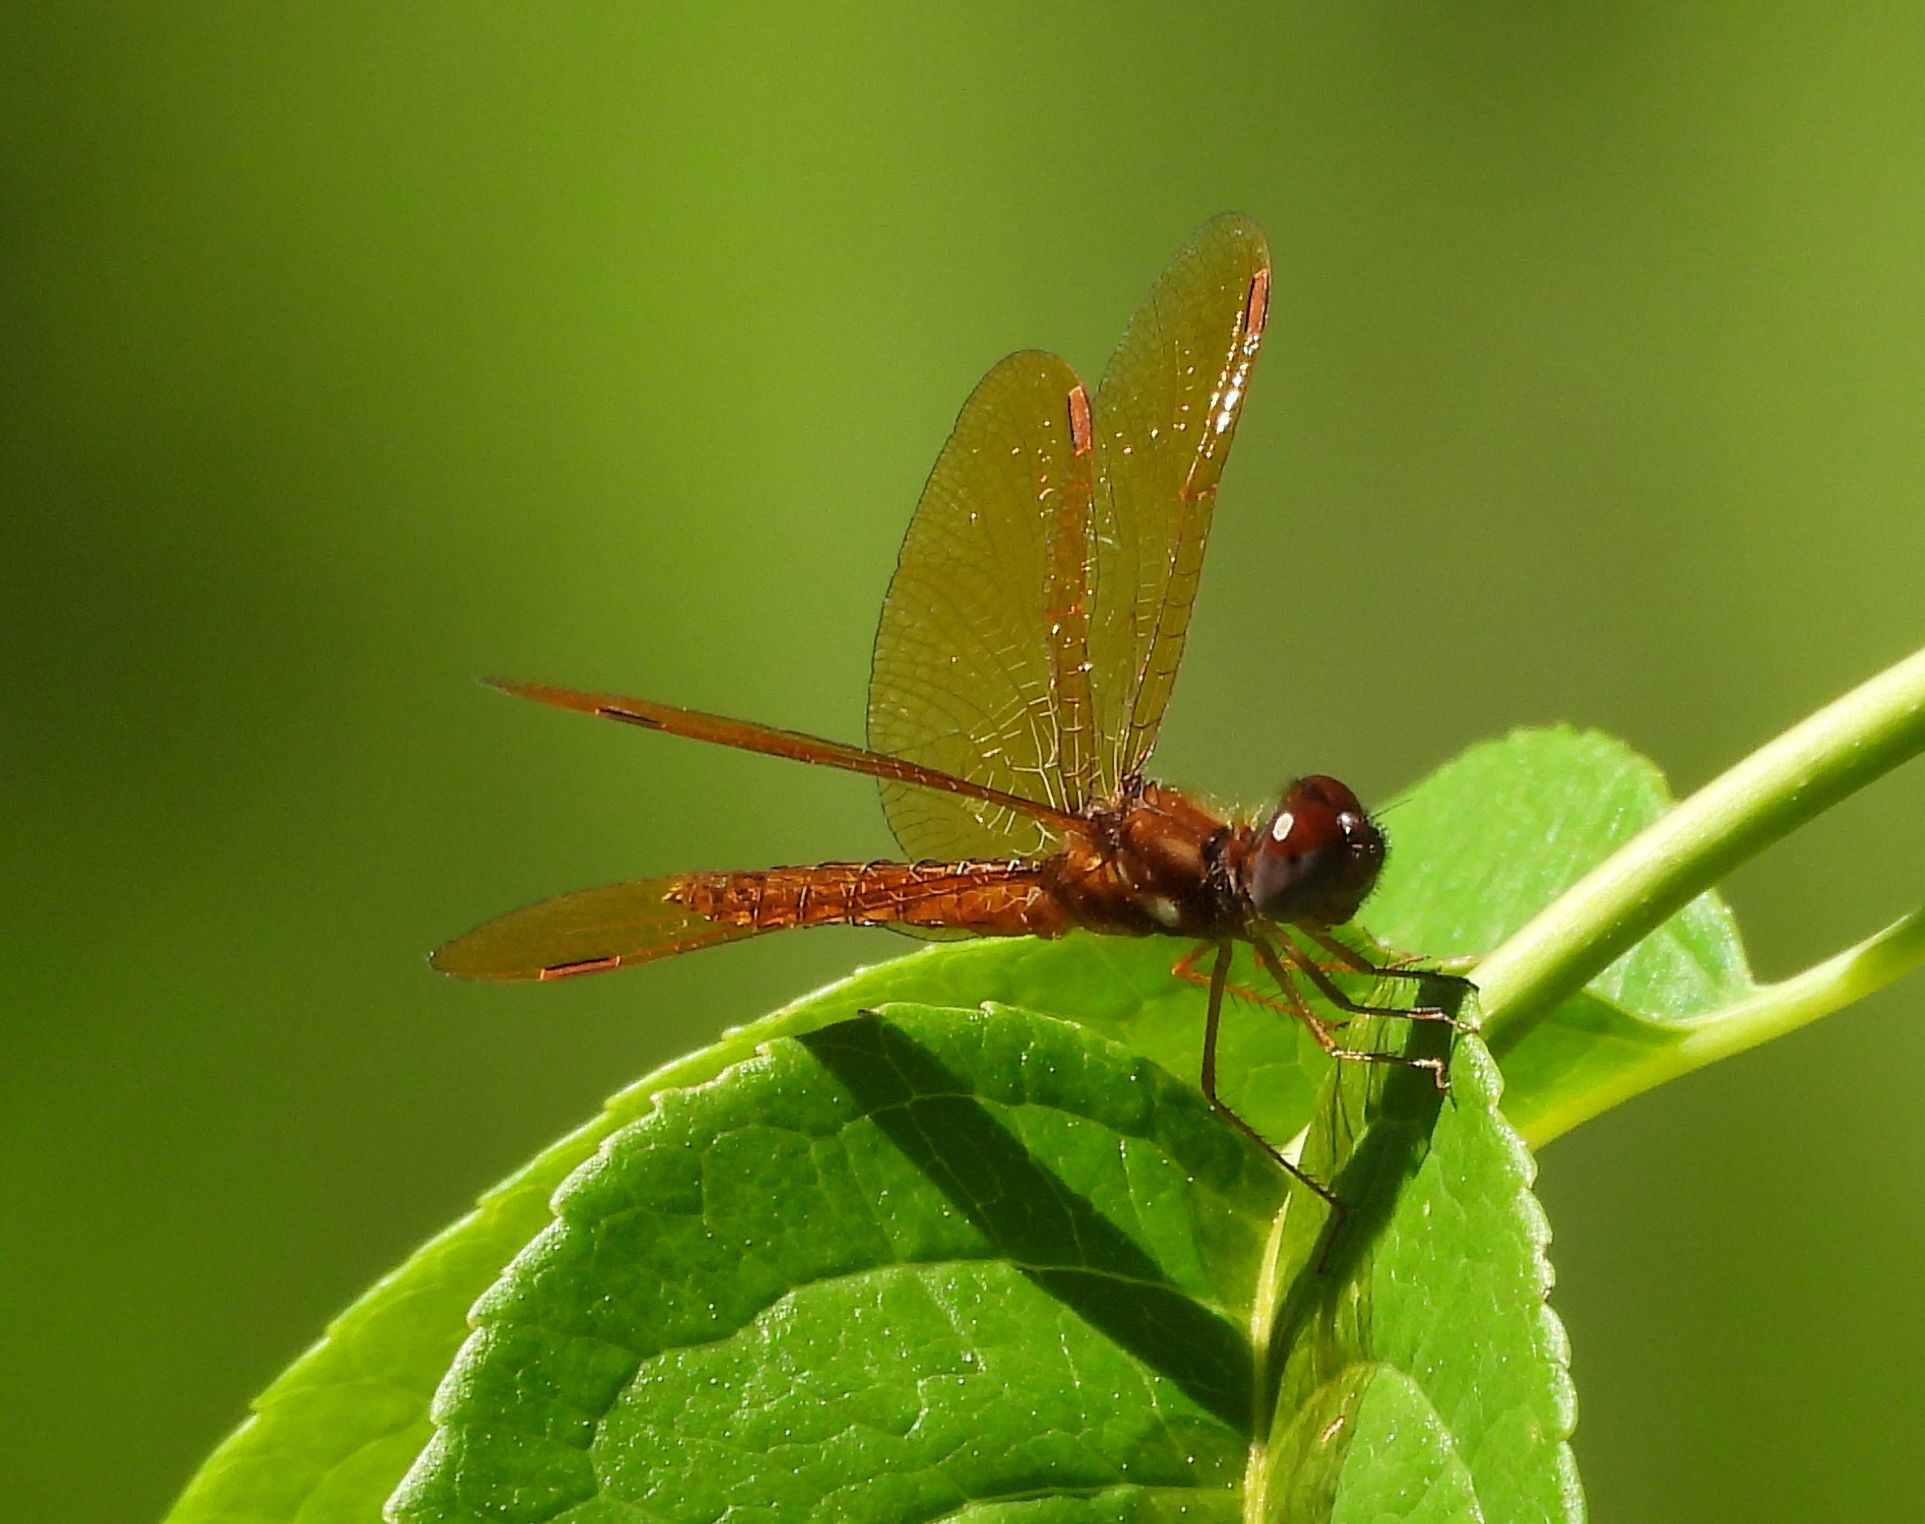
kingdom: Animalia
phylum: Arthropoda
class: Insecta
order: Odonata
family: Libellulidae
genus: Perithemis
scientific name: Perithemis tenera
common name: Eastern amberwing
